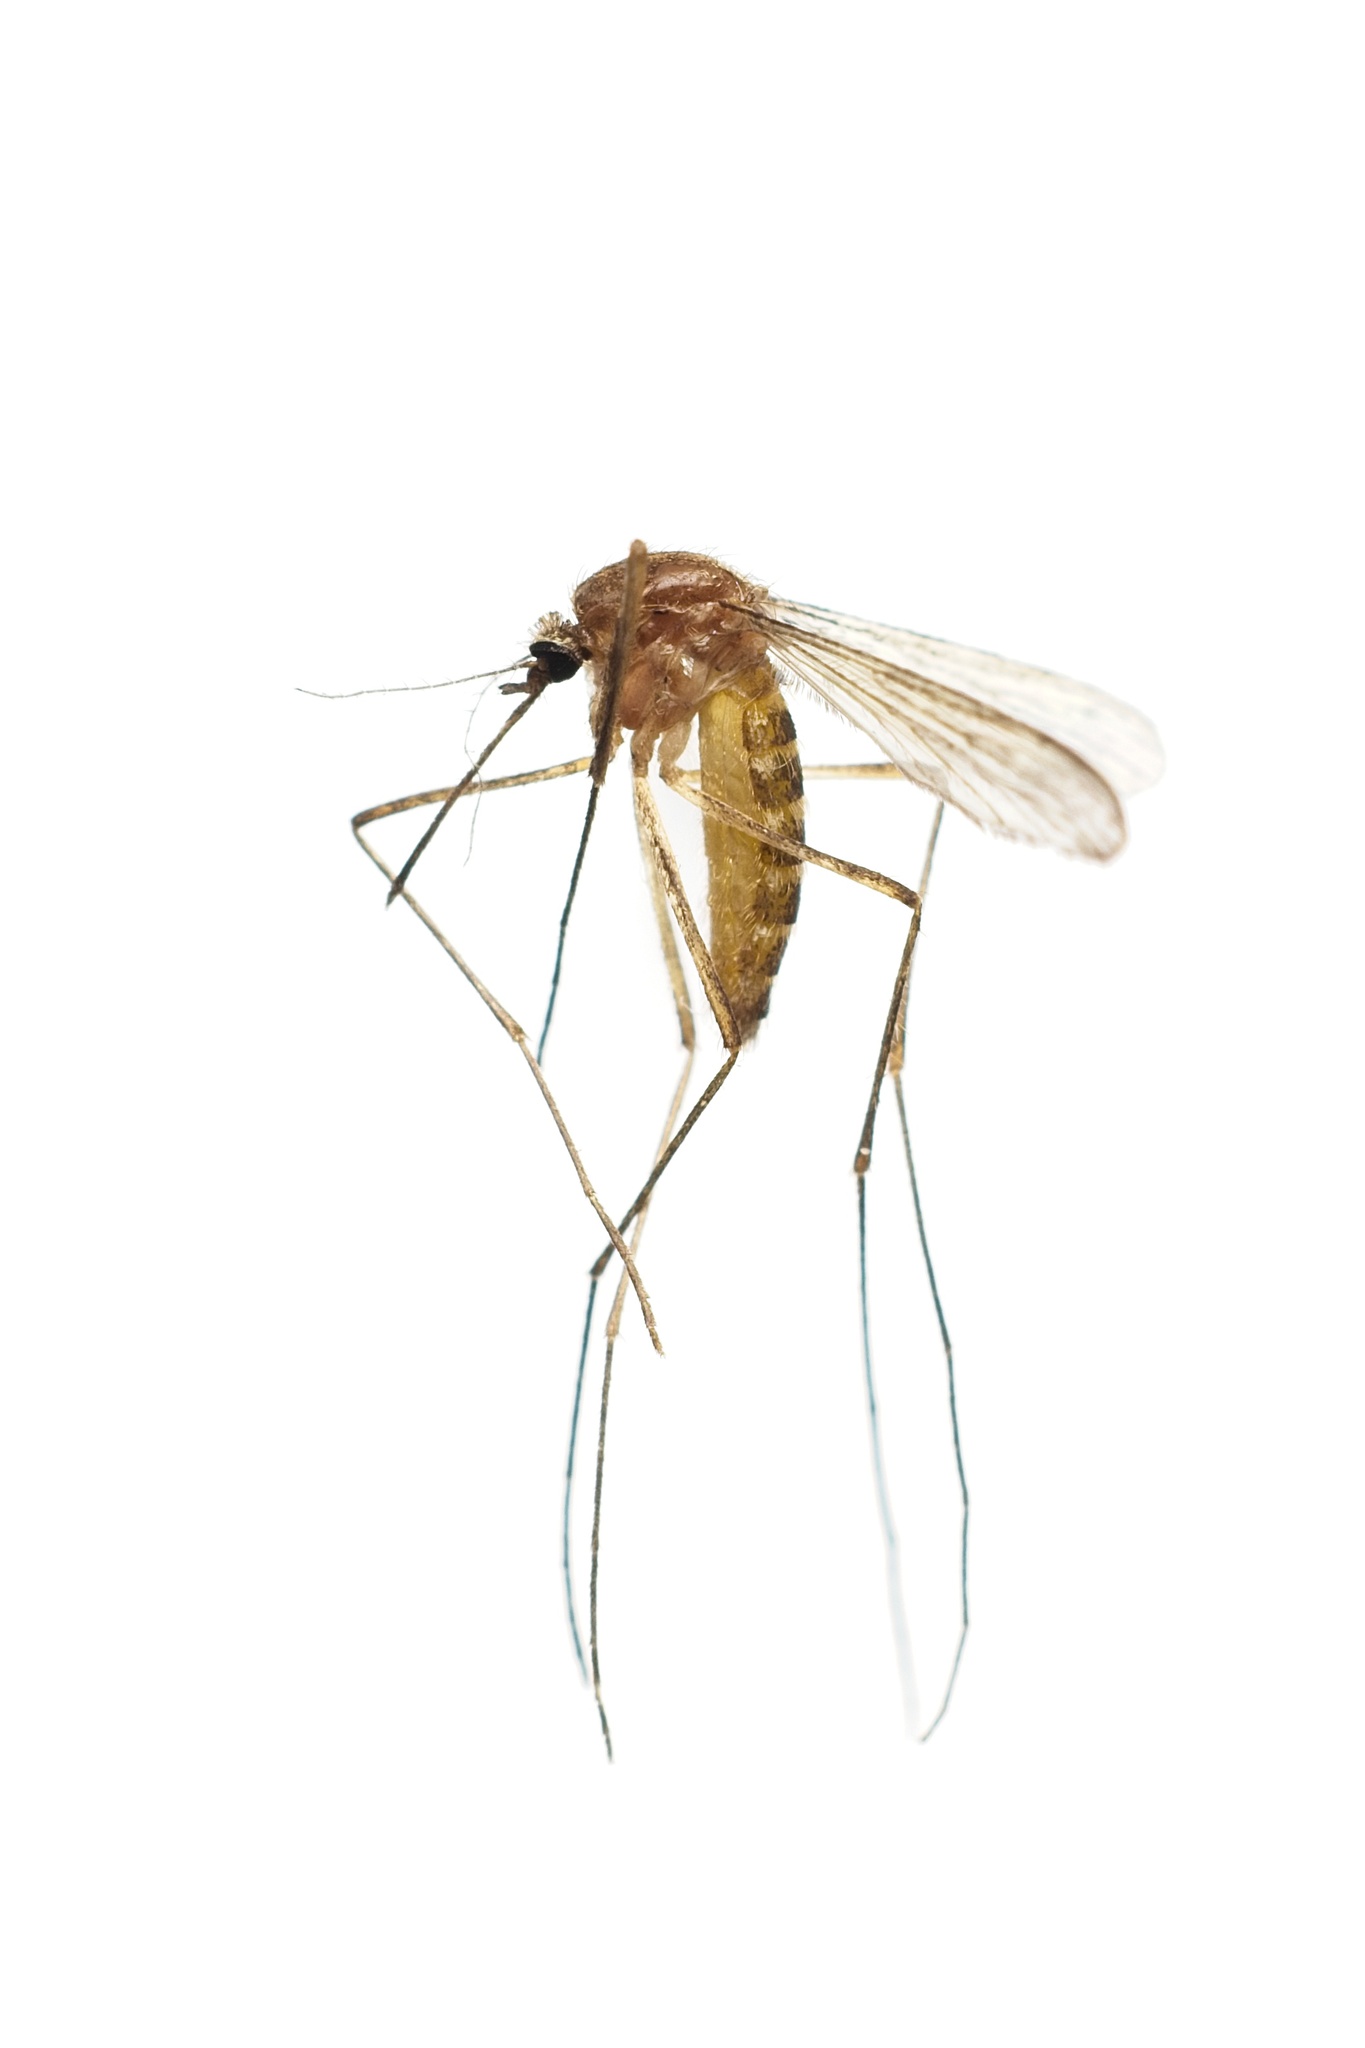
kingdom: Animalia
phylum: Arthropoda
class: Insecta
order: Diptera
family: Culicidae
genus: Culex
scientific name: Culex quinquefasciatus
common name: Southern house mosquito
